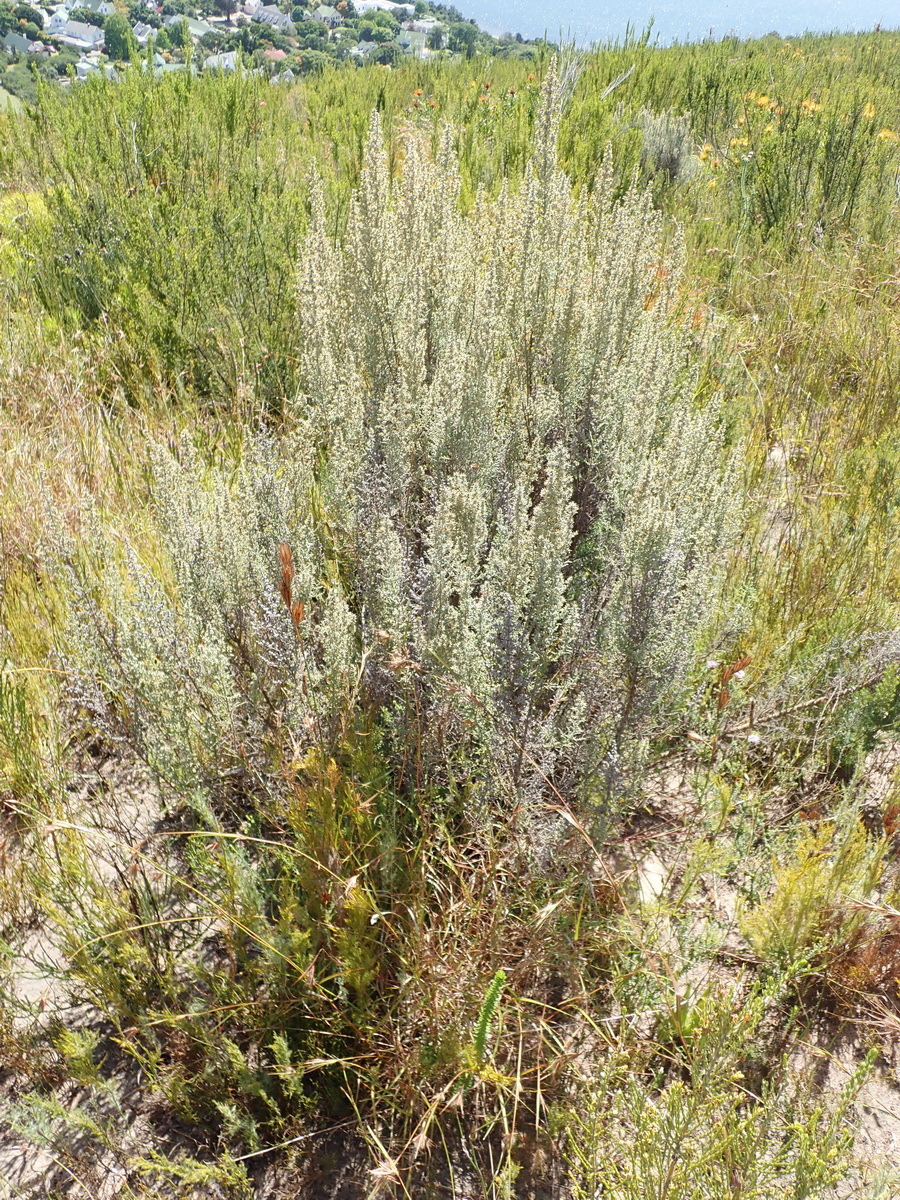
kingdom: Plantae
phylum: Tracheophyta
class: Magnoliopsida
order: Asterales
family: Asteraceae
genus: Seriphium
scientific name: Seriphium plumosum
